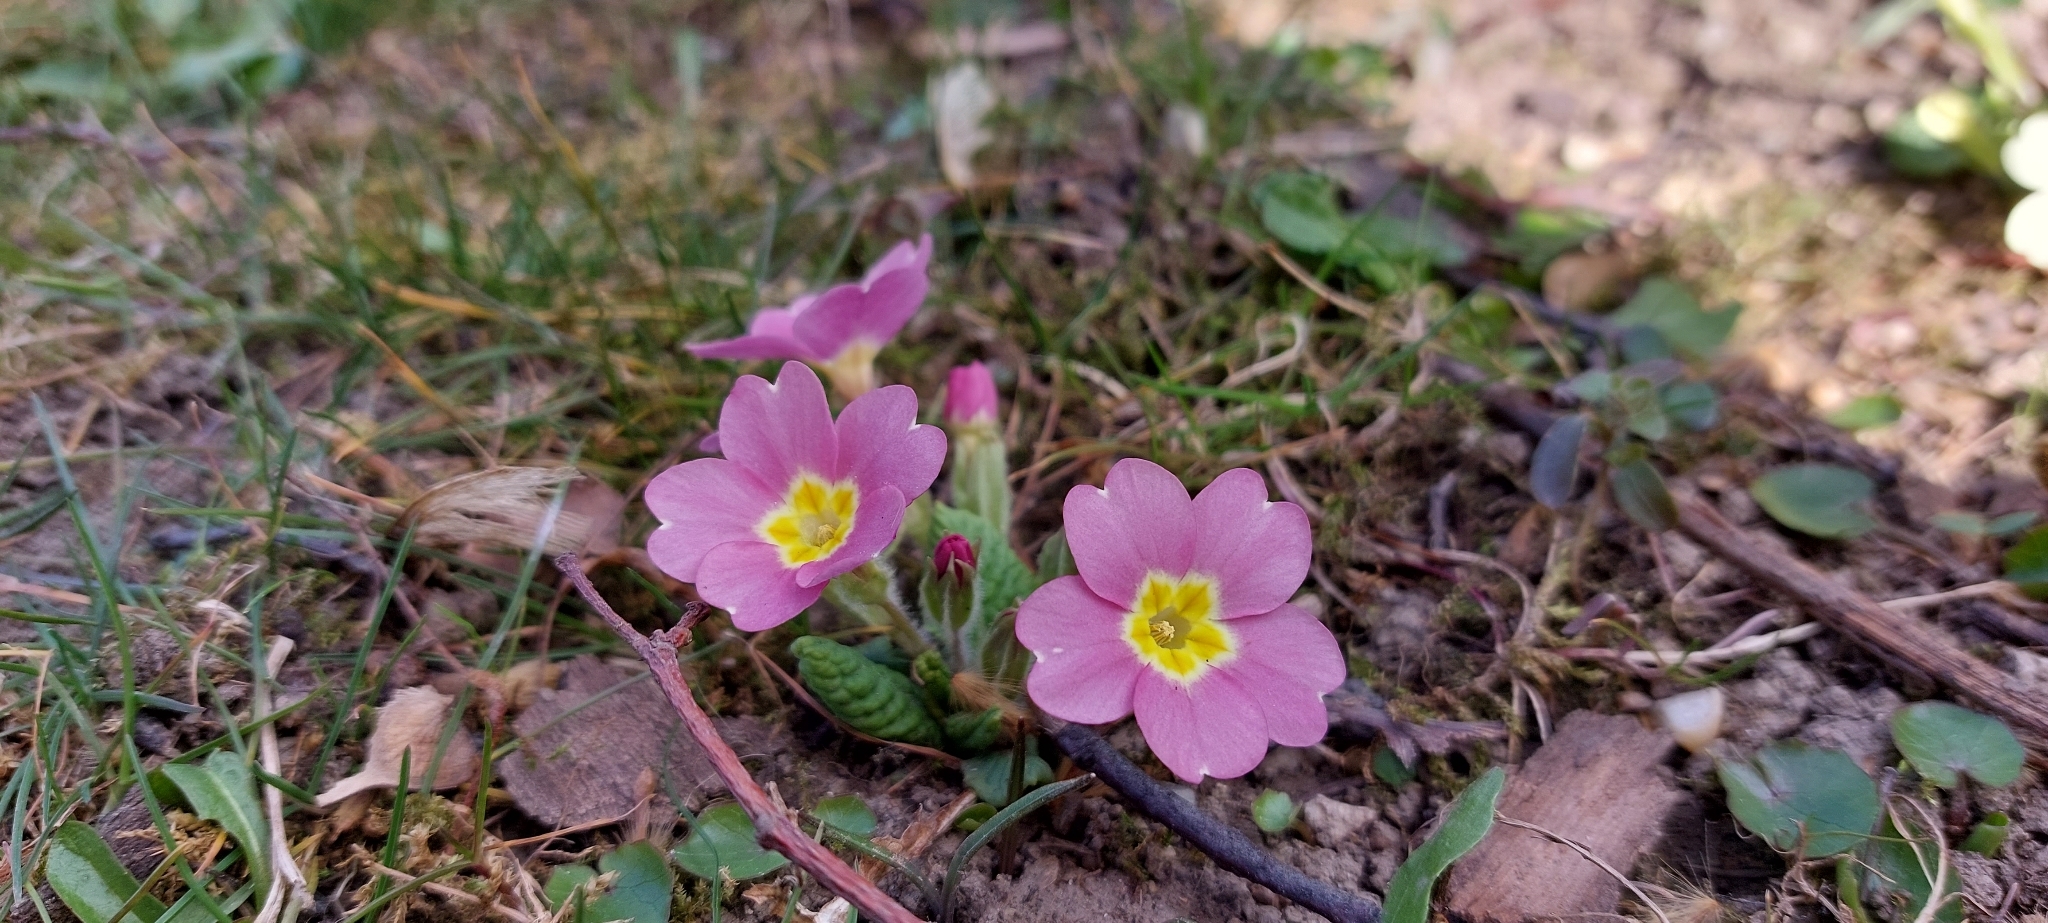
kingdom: Plantae
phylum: Tracheophyta
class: Magnoliopsida
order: Ericales
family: Primulaceae
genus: Primula
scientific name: Primula vulgaris
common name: Primrose
